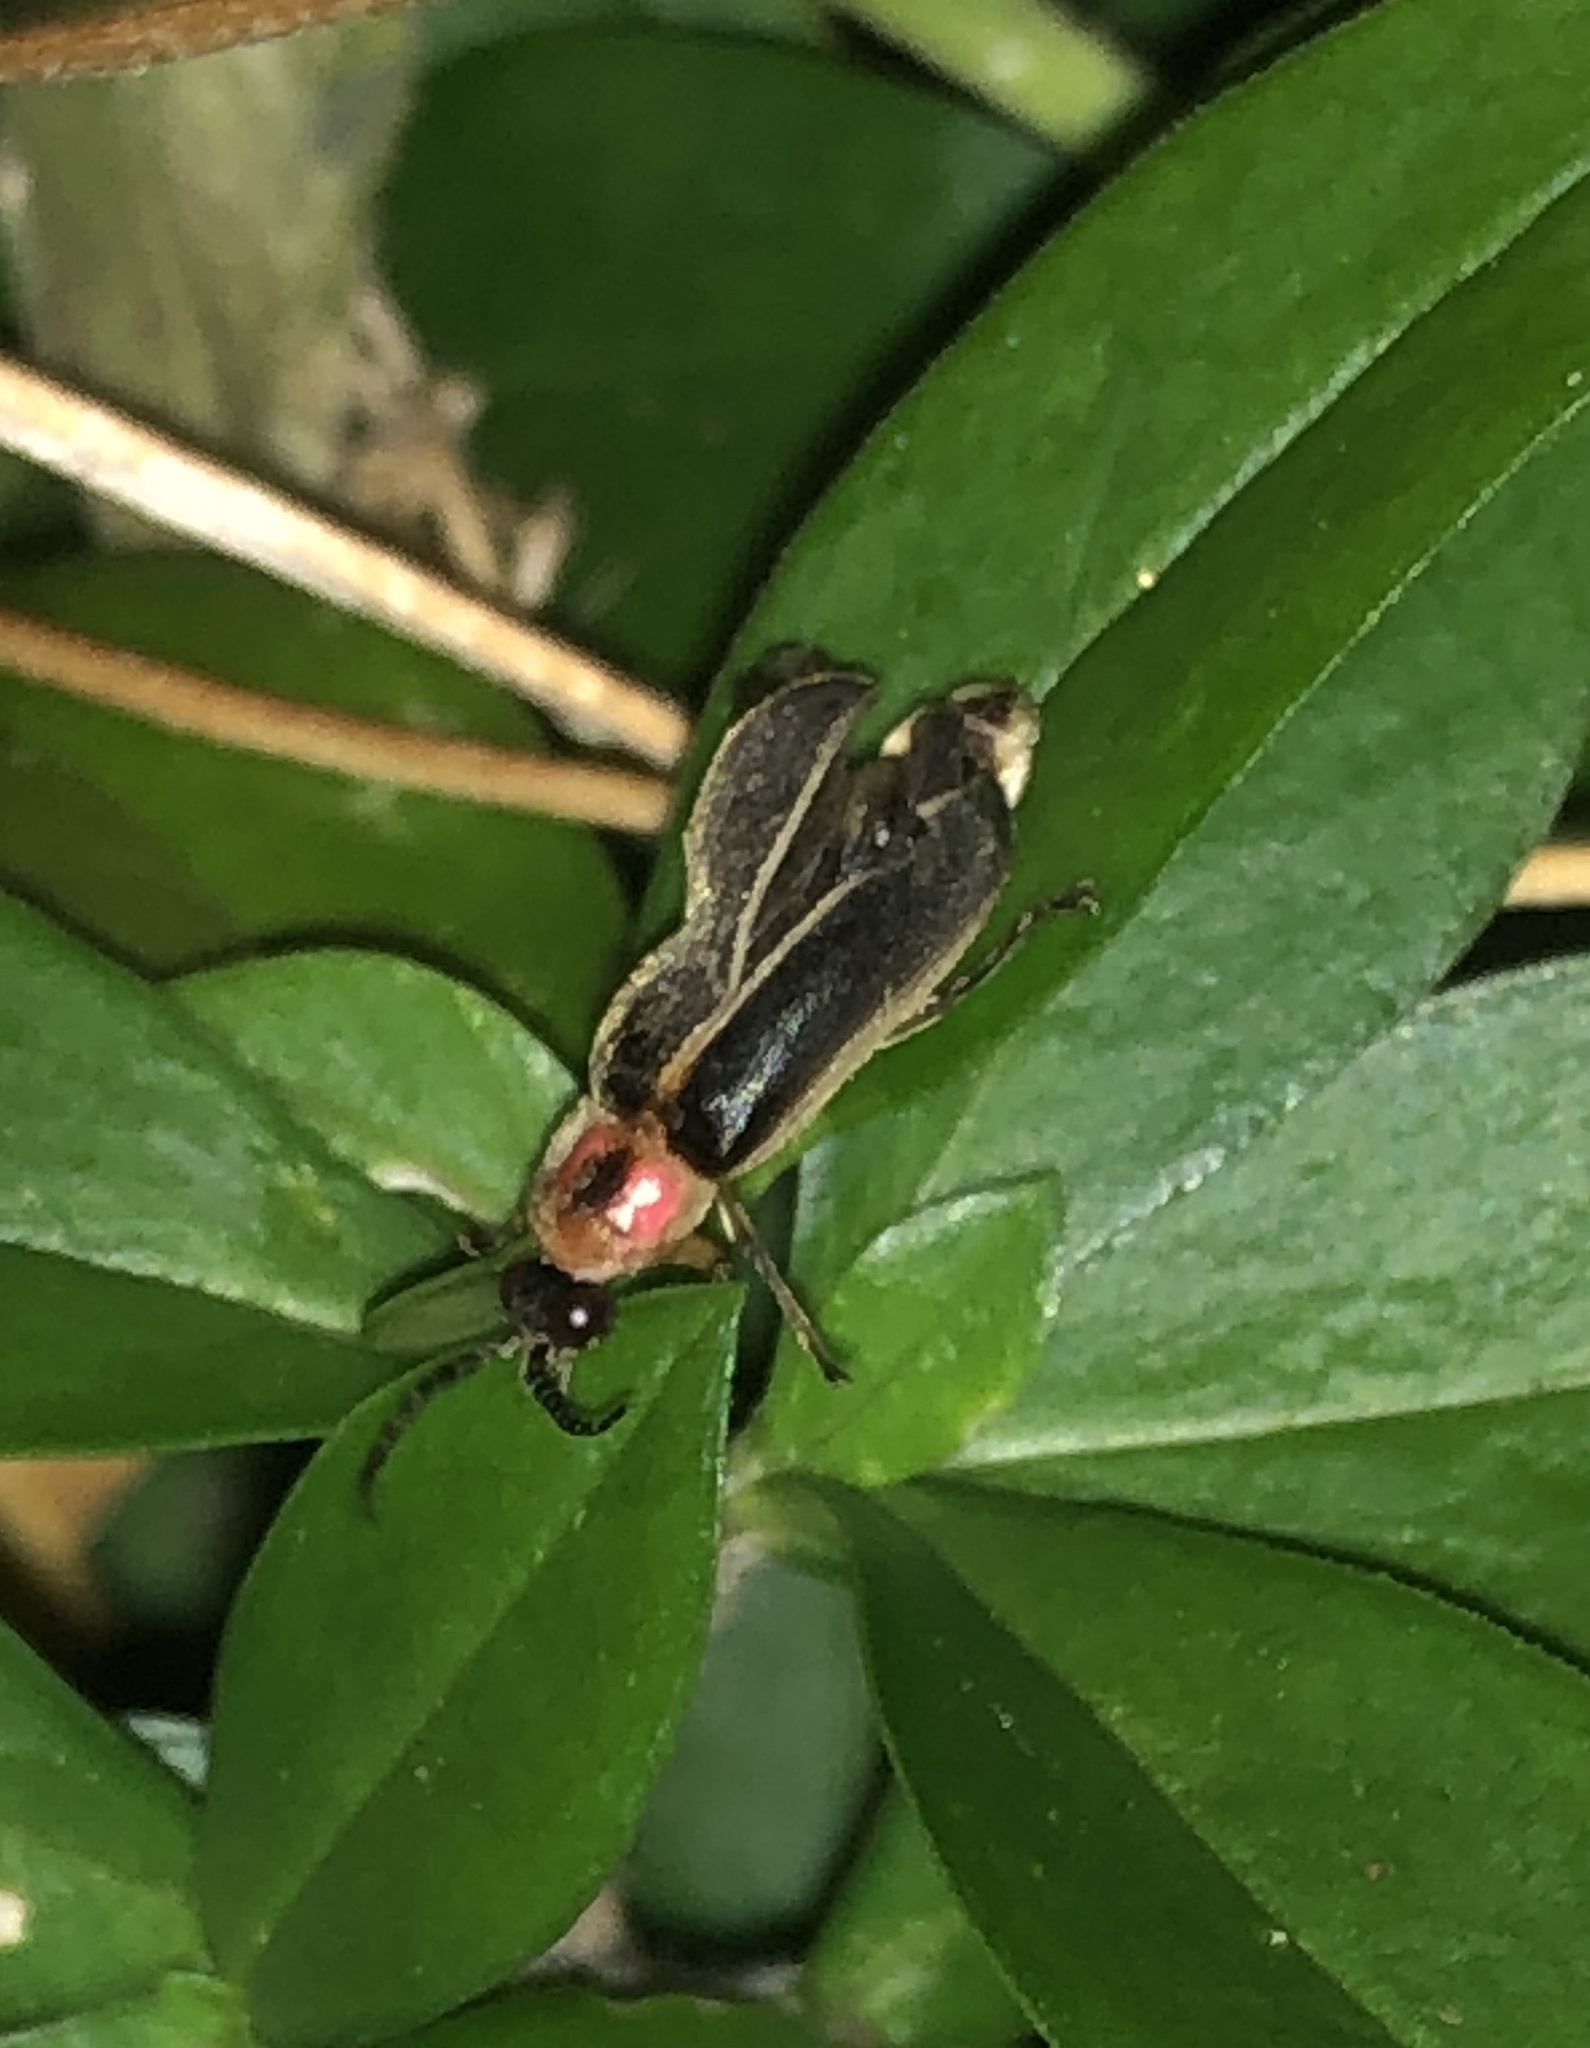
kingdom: Animalia
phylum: Arthropoda
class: Insecta
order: Coleoptera
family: Lampyridae
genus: Photinus
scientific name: Photinus pyralis
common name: Big dipper firefly
